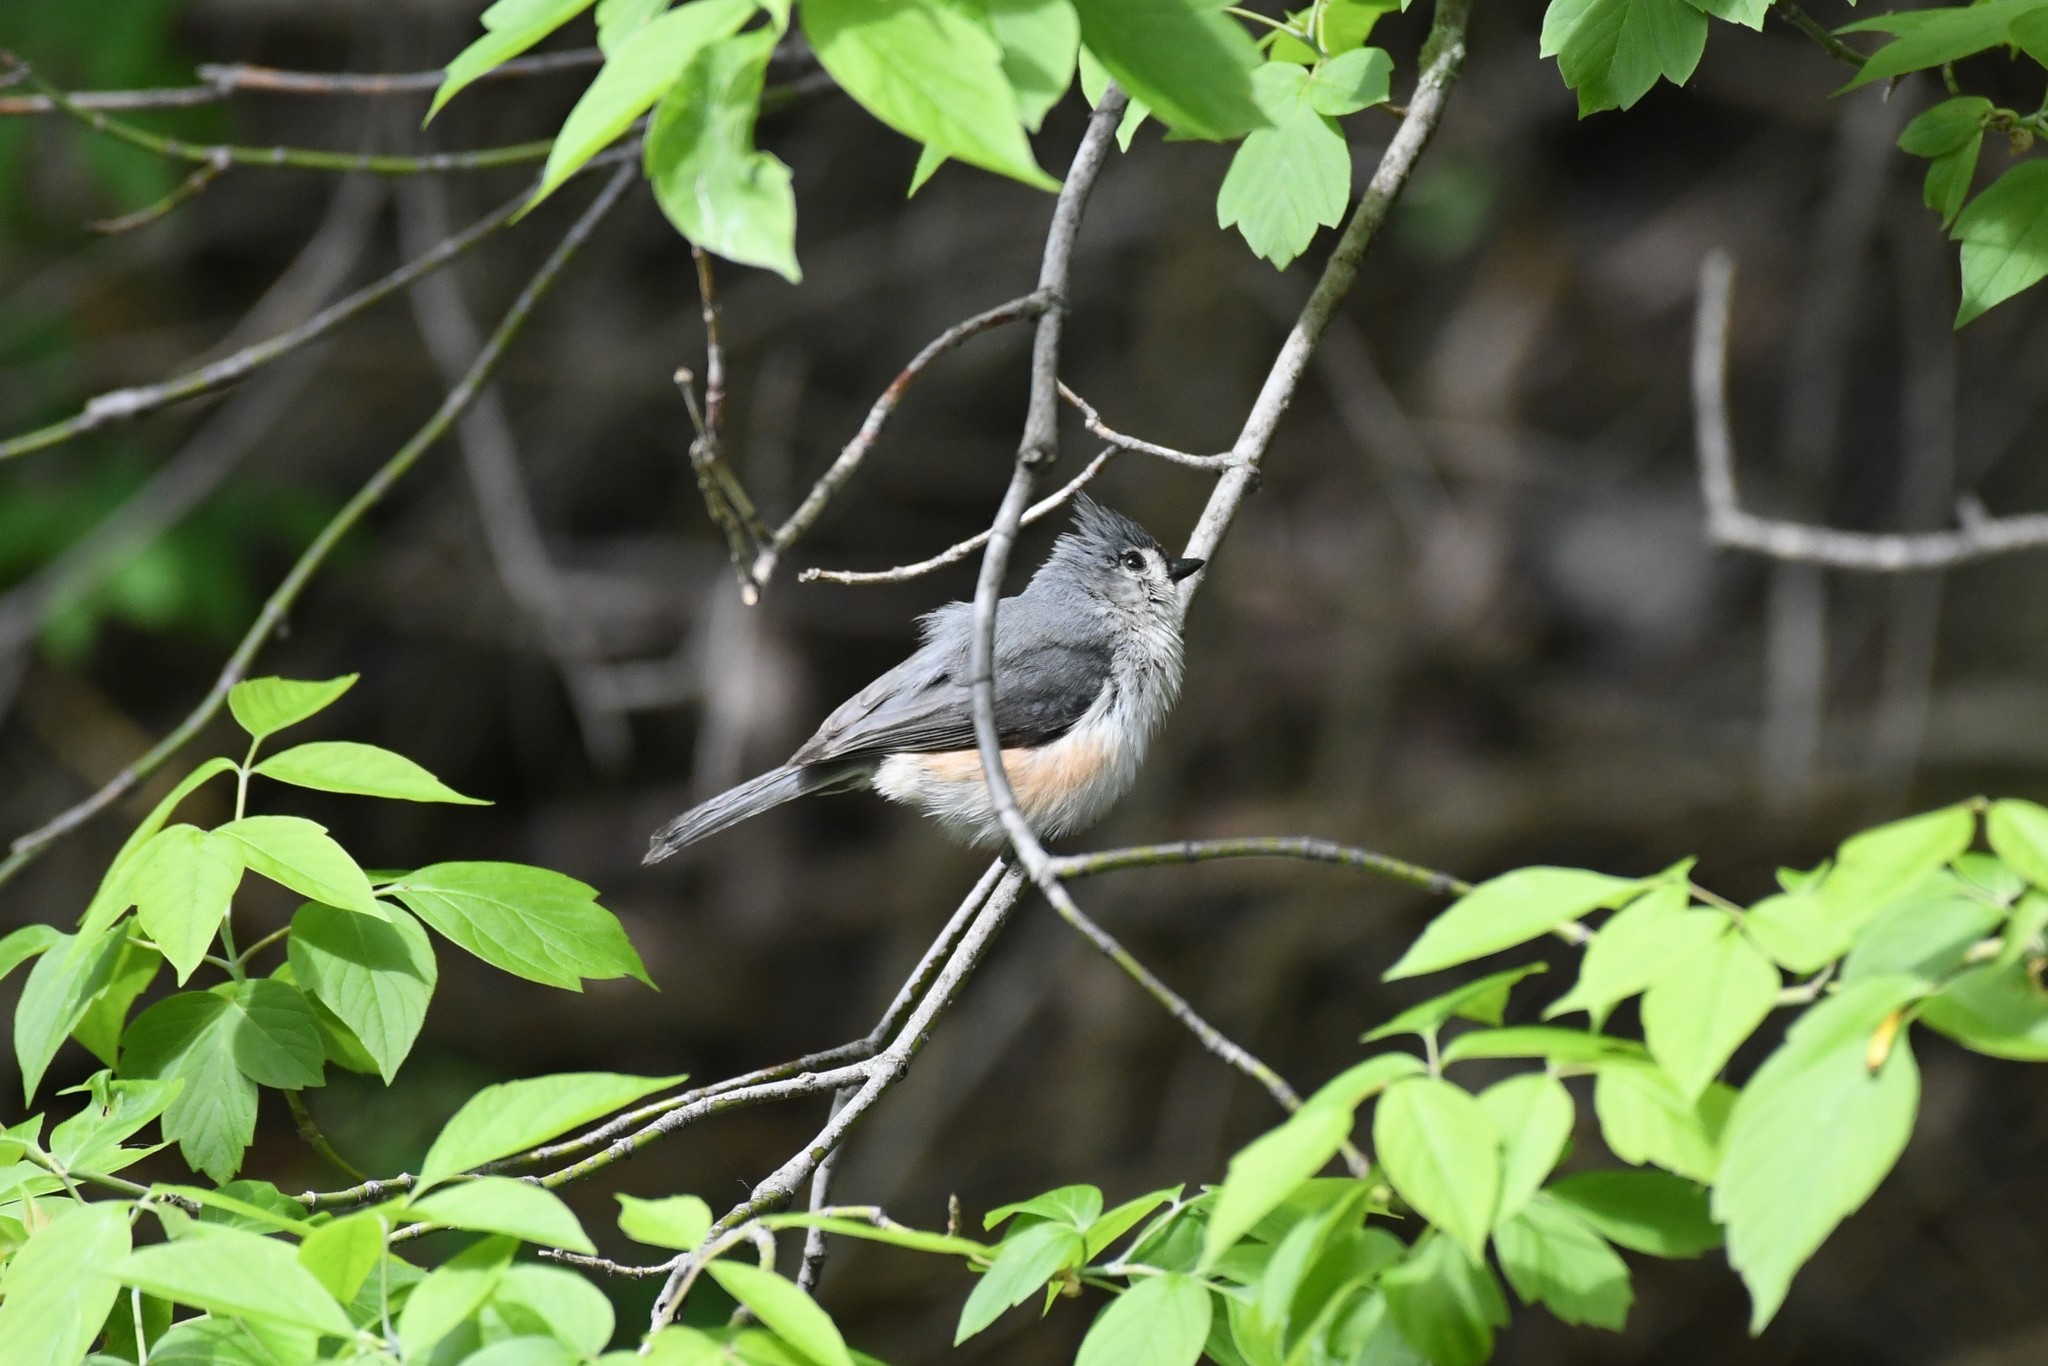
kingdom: Animalia
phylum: Chordata
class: Aves
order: Passeriformes
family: Paridae
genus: Baeolophus
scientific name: Baeolophus bicolor
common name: Tufted titmouse
